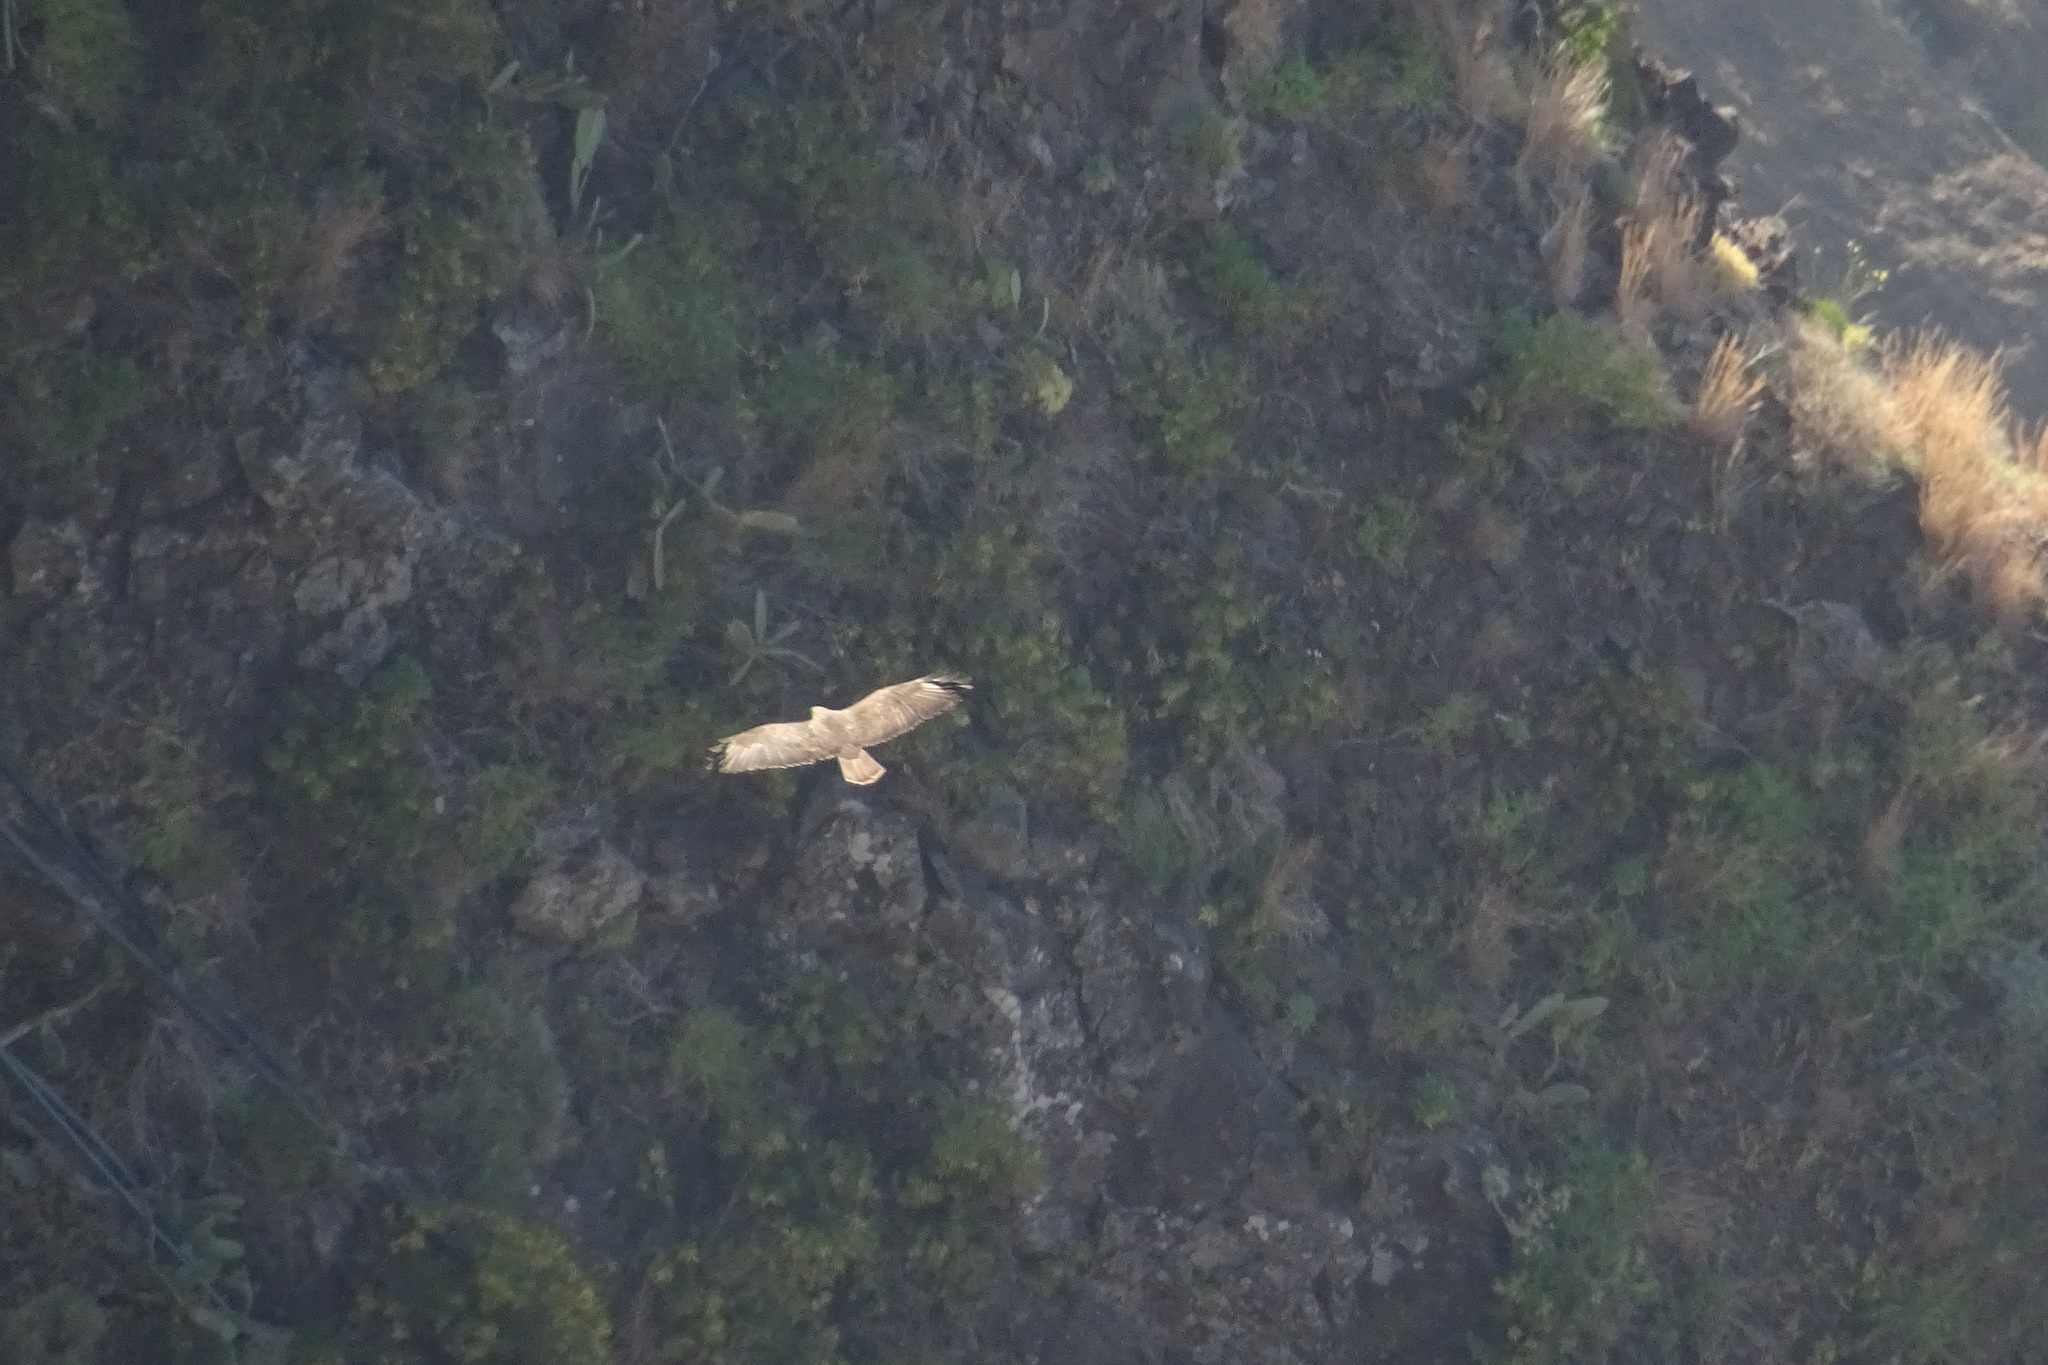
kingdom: Animalia
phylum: Chordata
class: Aves
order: Accipitriformes
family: Accipitridae
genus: Buteo
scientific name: Buteo buteo
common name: Common buzzard
